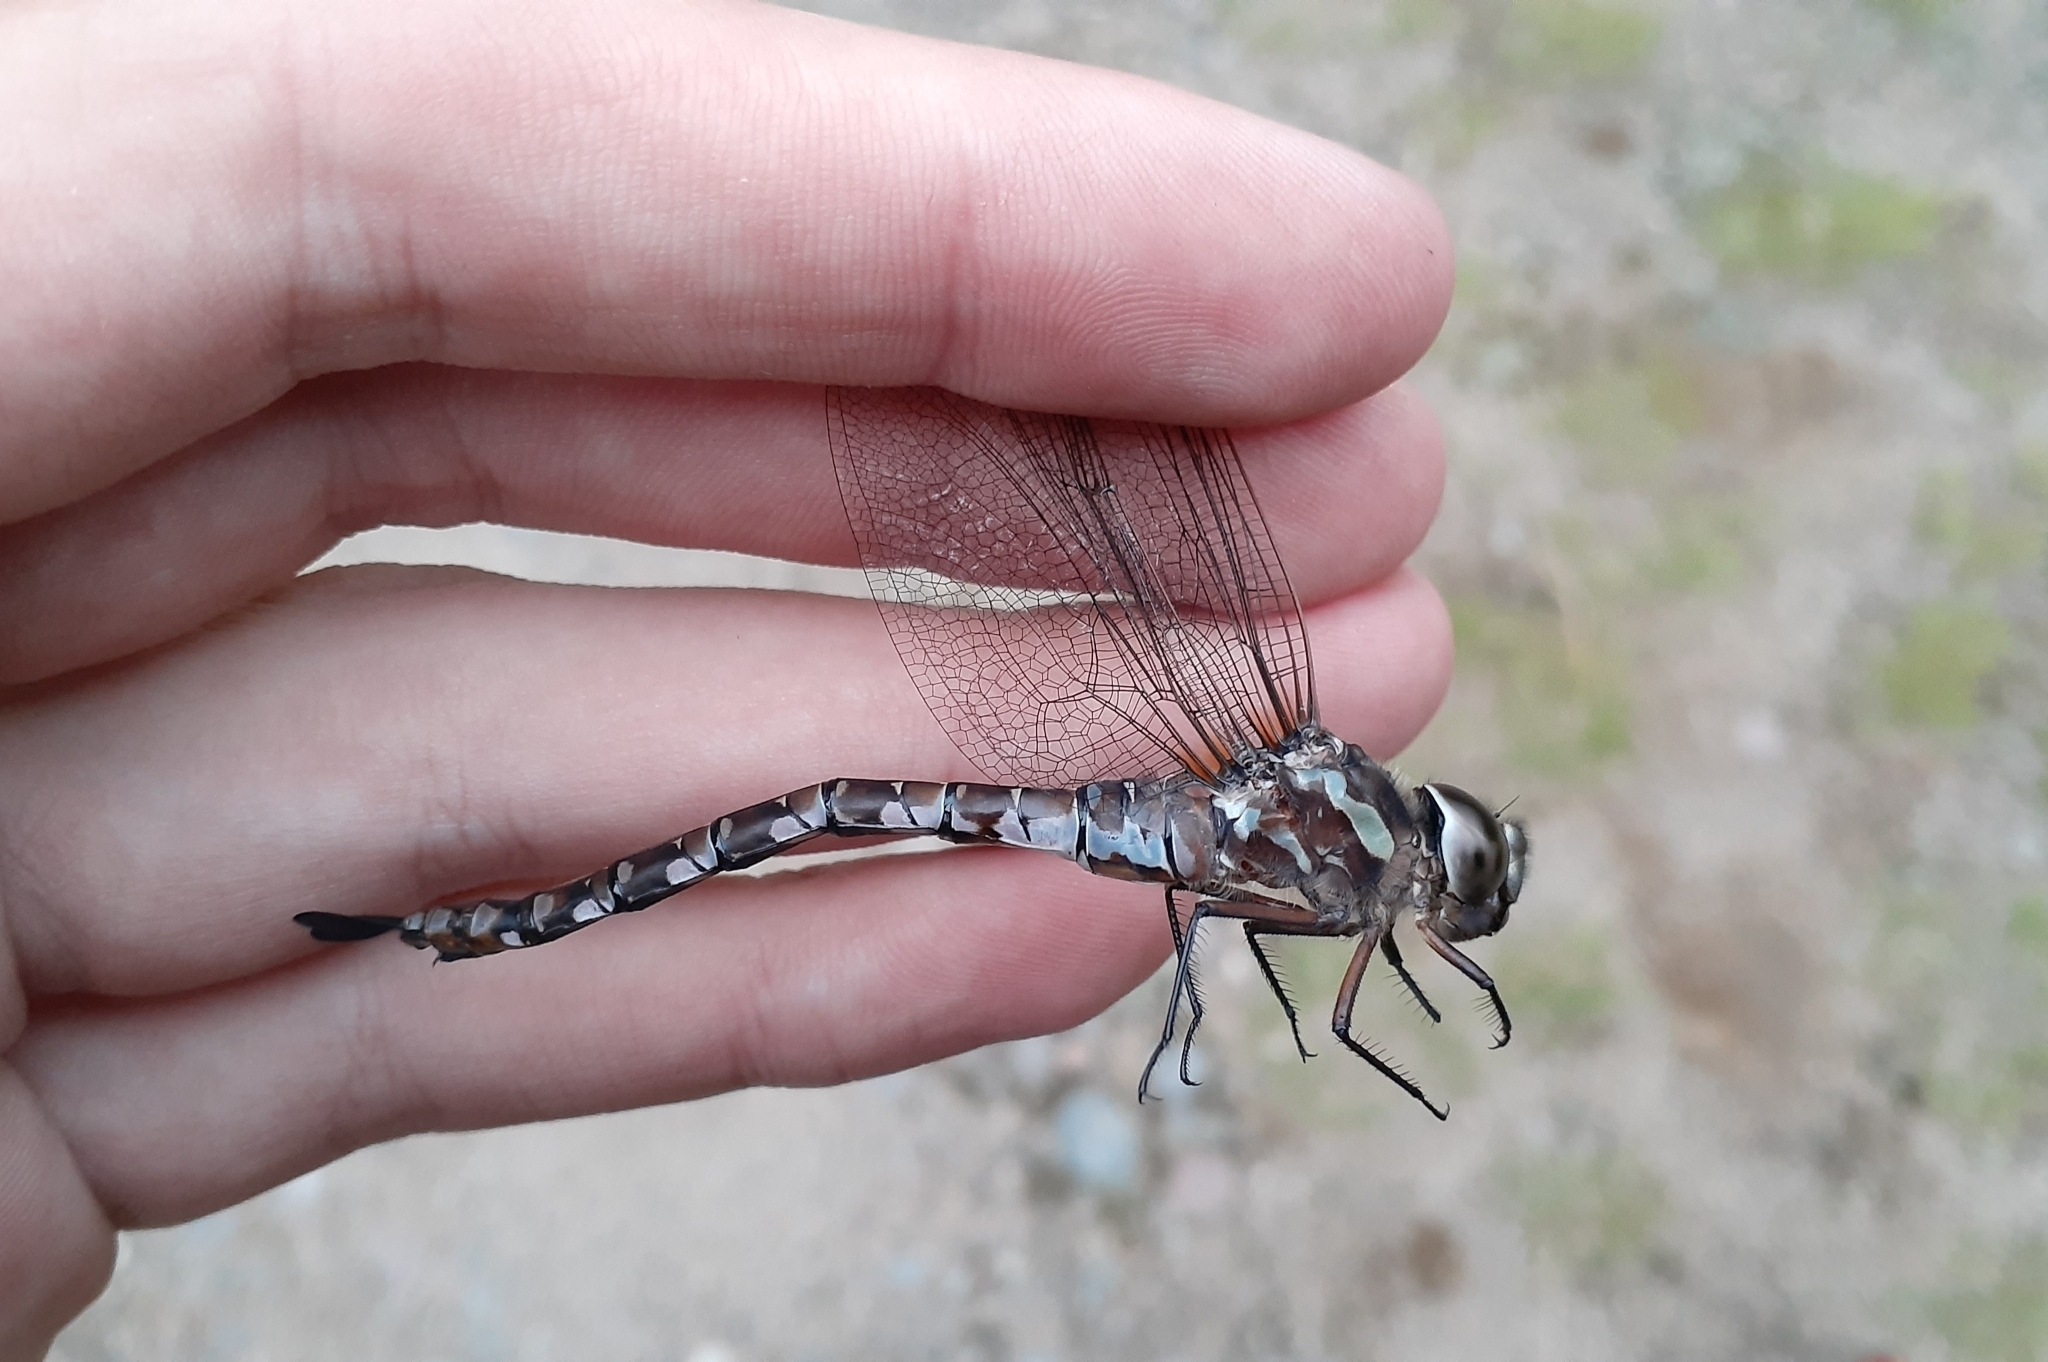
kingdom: Animalia
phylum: Arthropoda
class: Insecta
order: Odonata
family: Aeshnidae
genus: Aeshna
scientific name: Aeshna canadensis
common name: Canada darner
